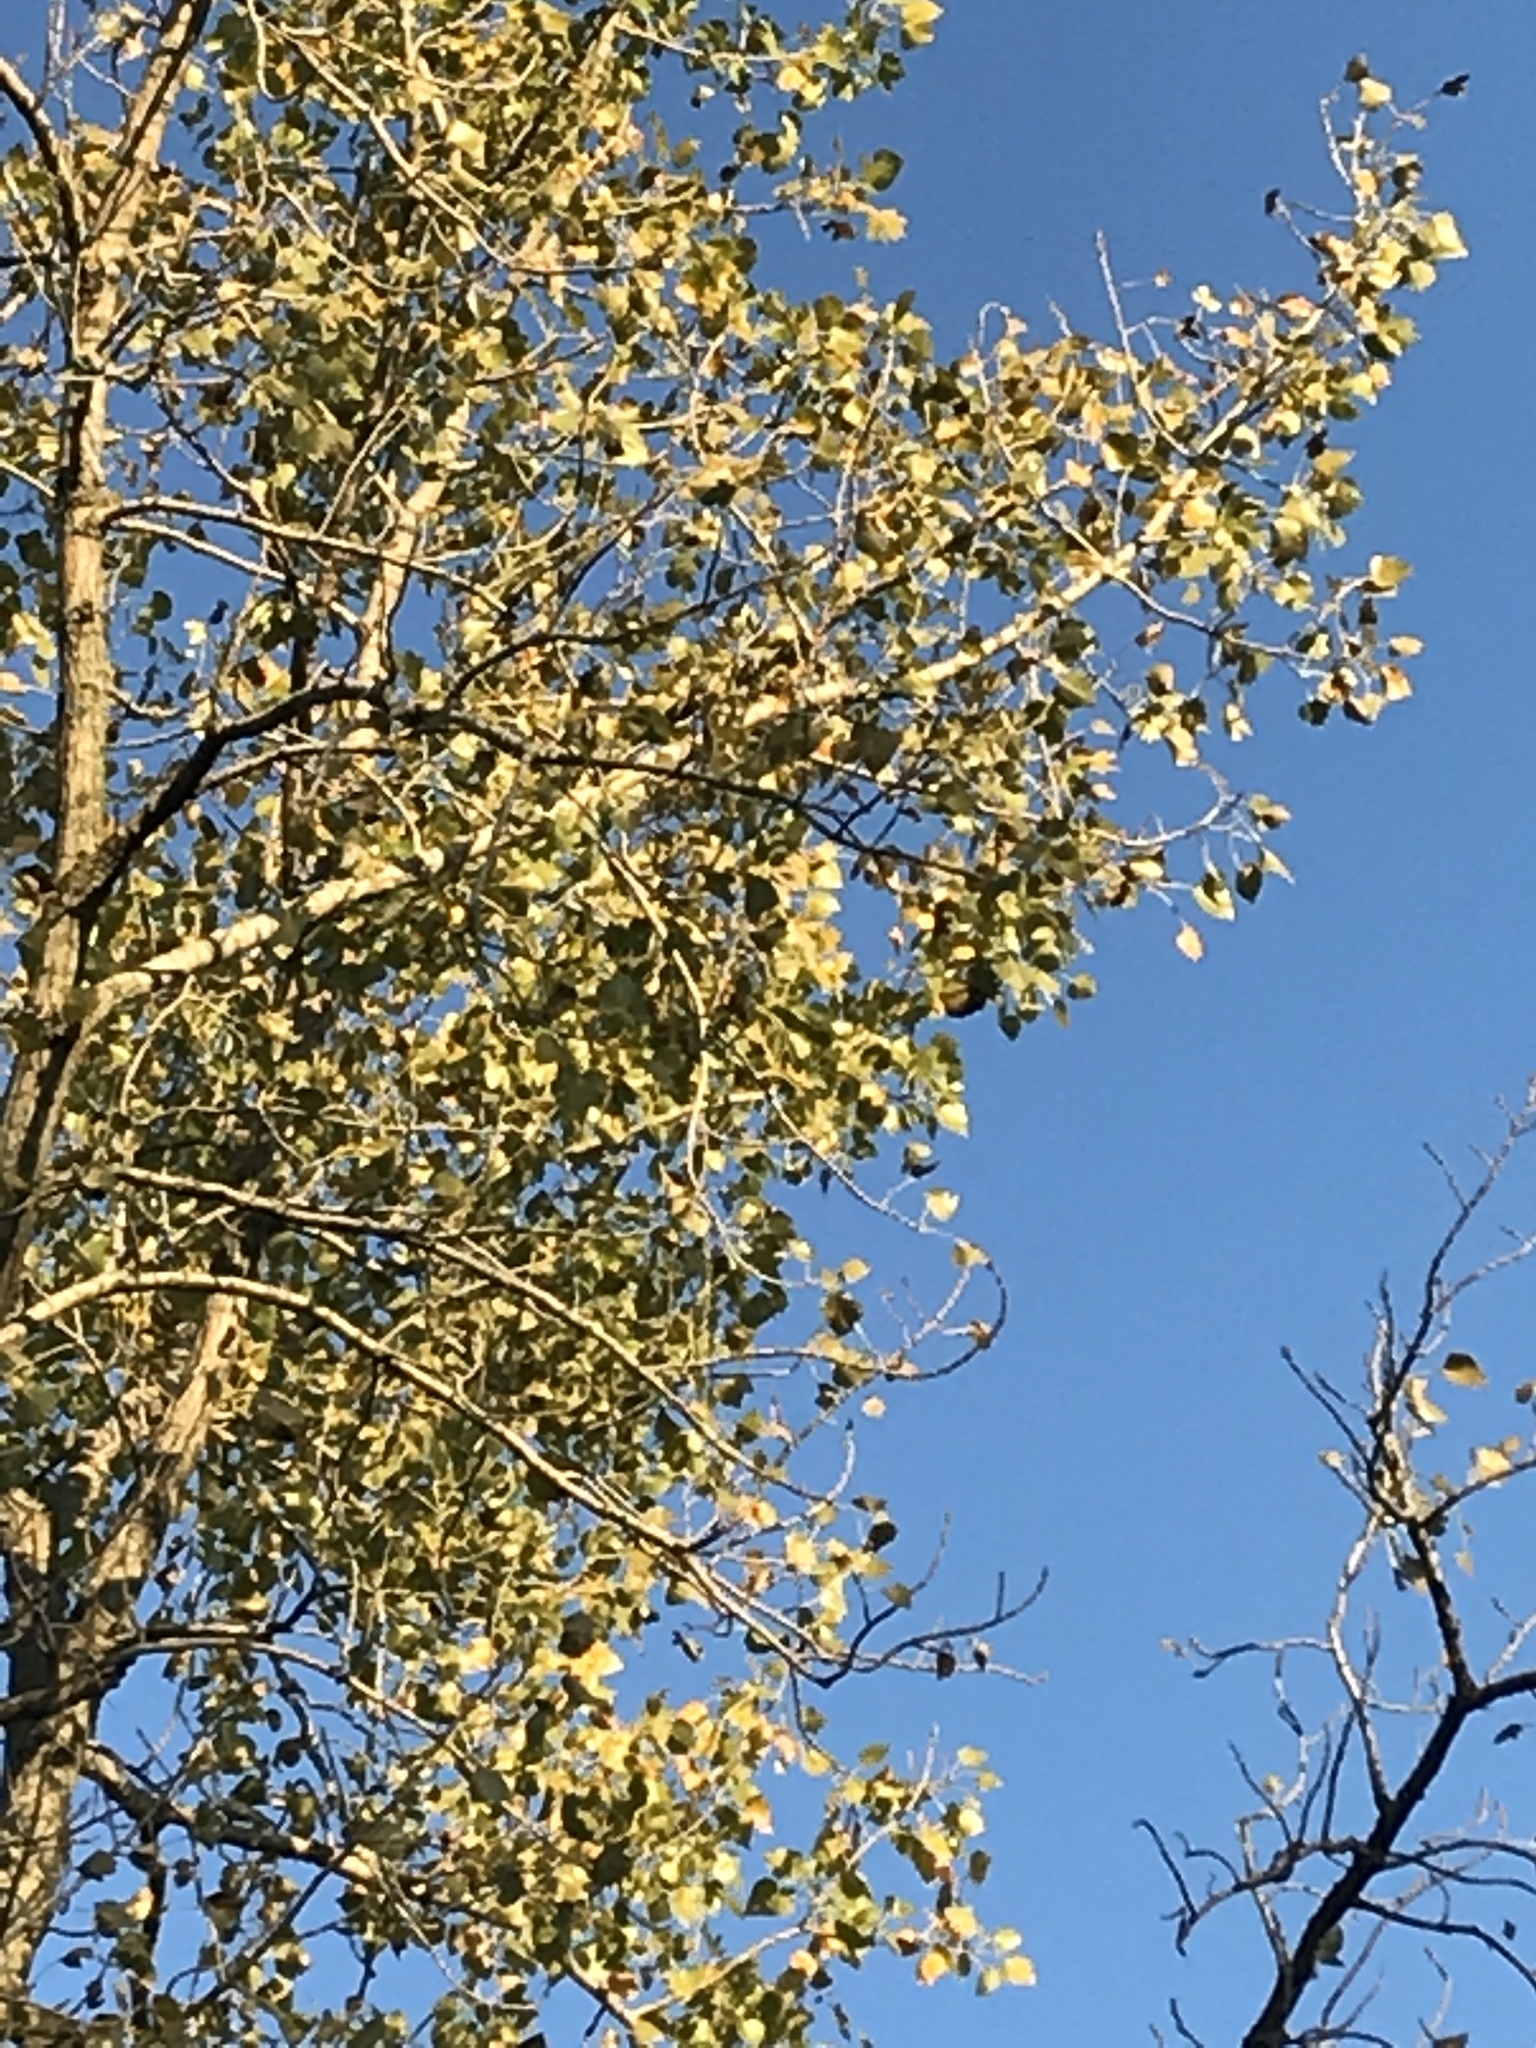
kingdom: Plantae
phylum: Tracheophyta
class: Magnoliopsida
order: Malpighiales
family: Salicaceae
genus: Populus
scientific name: Populus deltoides
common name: Eastern cottonwood
